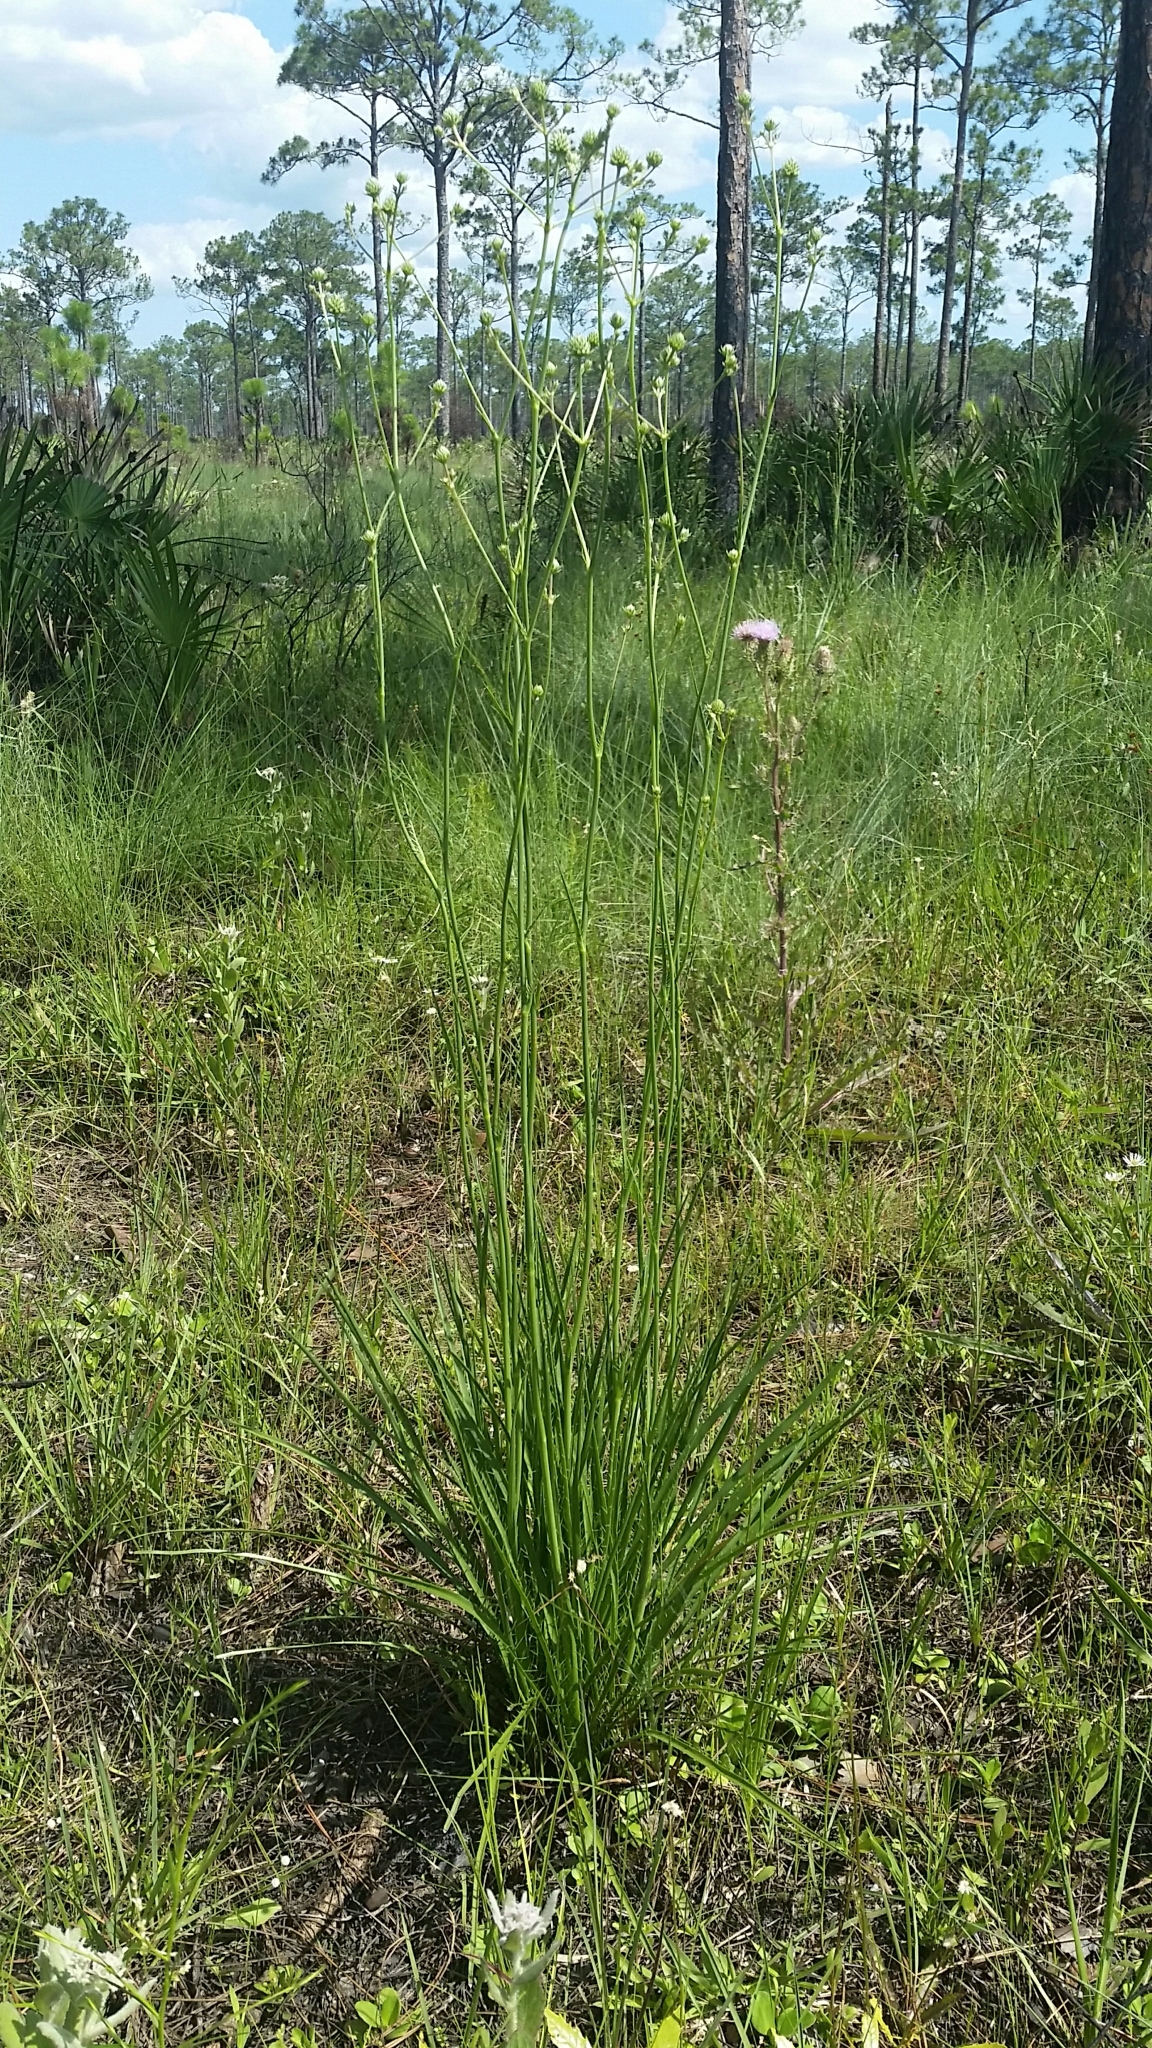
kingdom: Plantae
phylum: Tracheophyta
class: Magnoliopsida
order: Apiales
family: Apiaceae
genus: Eryngium
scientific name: Eryngium yuccifolium
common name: Button eryngo
